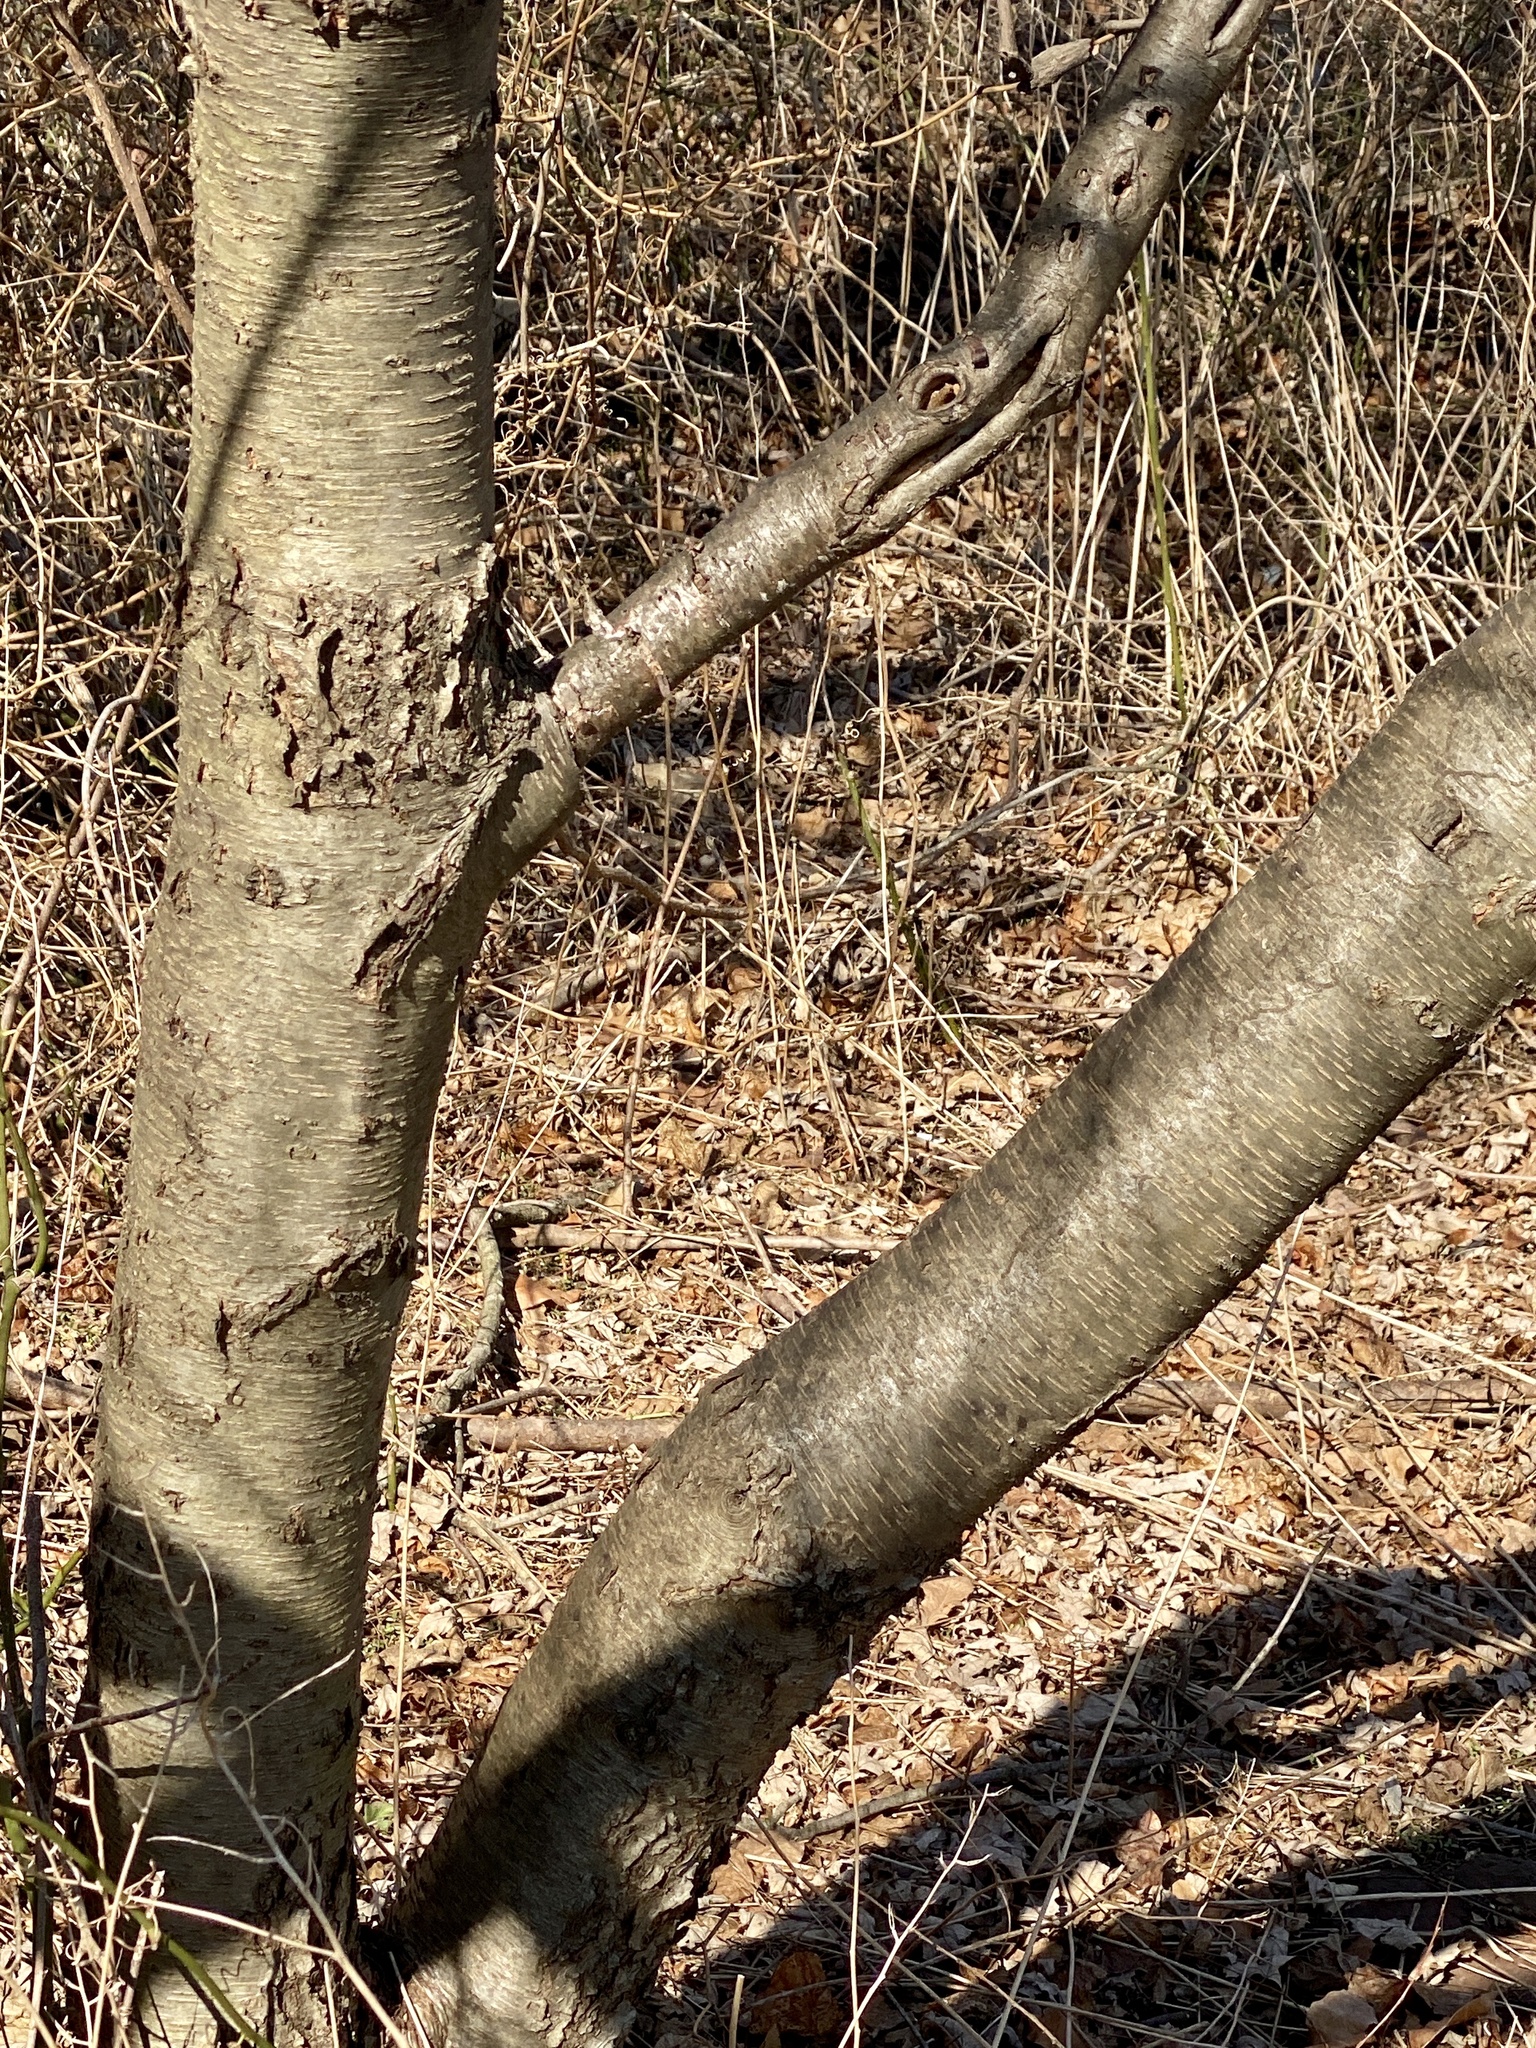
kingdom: Plantae
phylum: Tracheophyta
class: Magnoliopsida
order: Fagales
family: Betulaceae
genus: Betula
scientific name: Betula lenta
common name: Black birch
